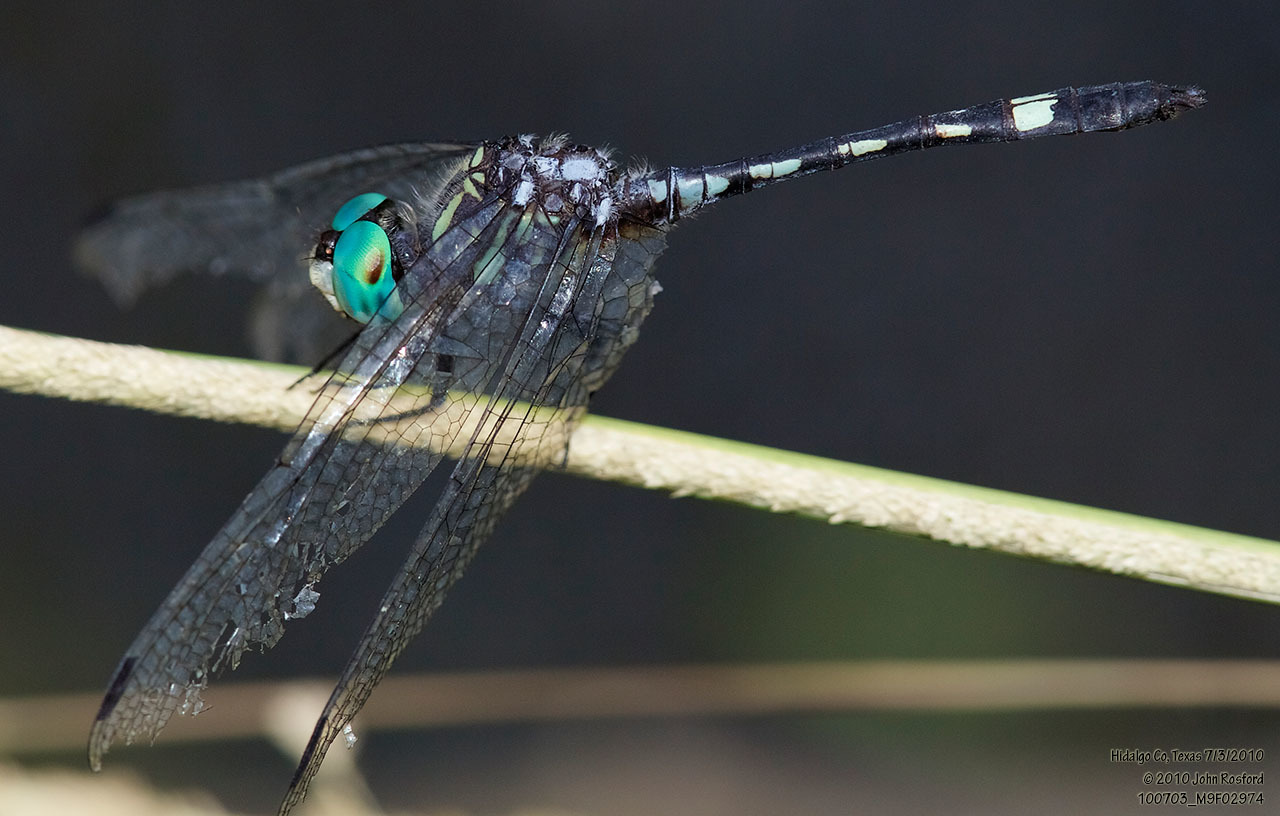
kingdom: Animalia
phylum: Arthropoda
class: Insecta
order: Odonata
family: Libellulidae
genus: Micrathyria
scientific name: Micrathyria hagenii
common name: Thornbush dasher
